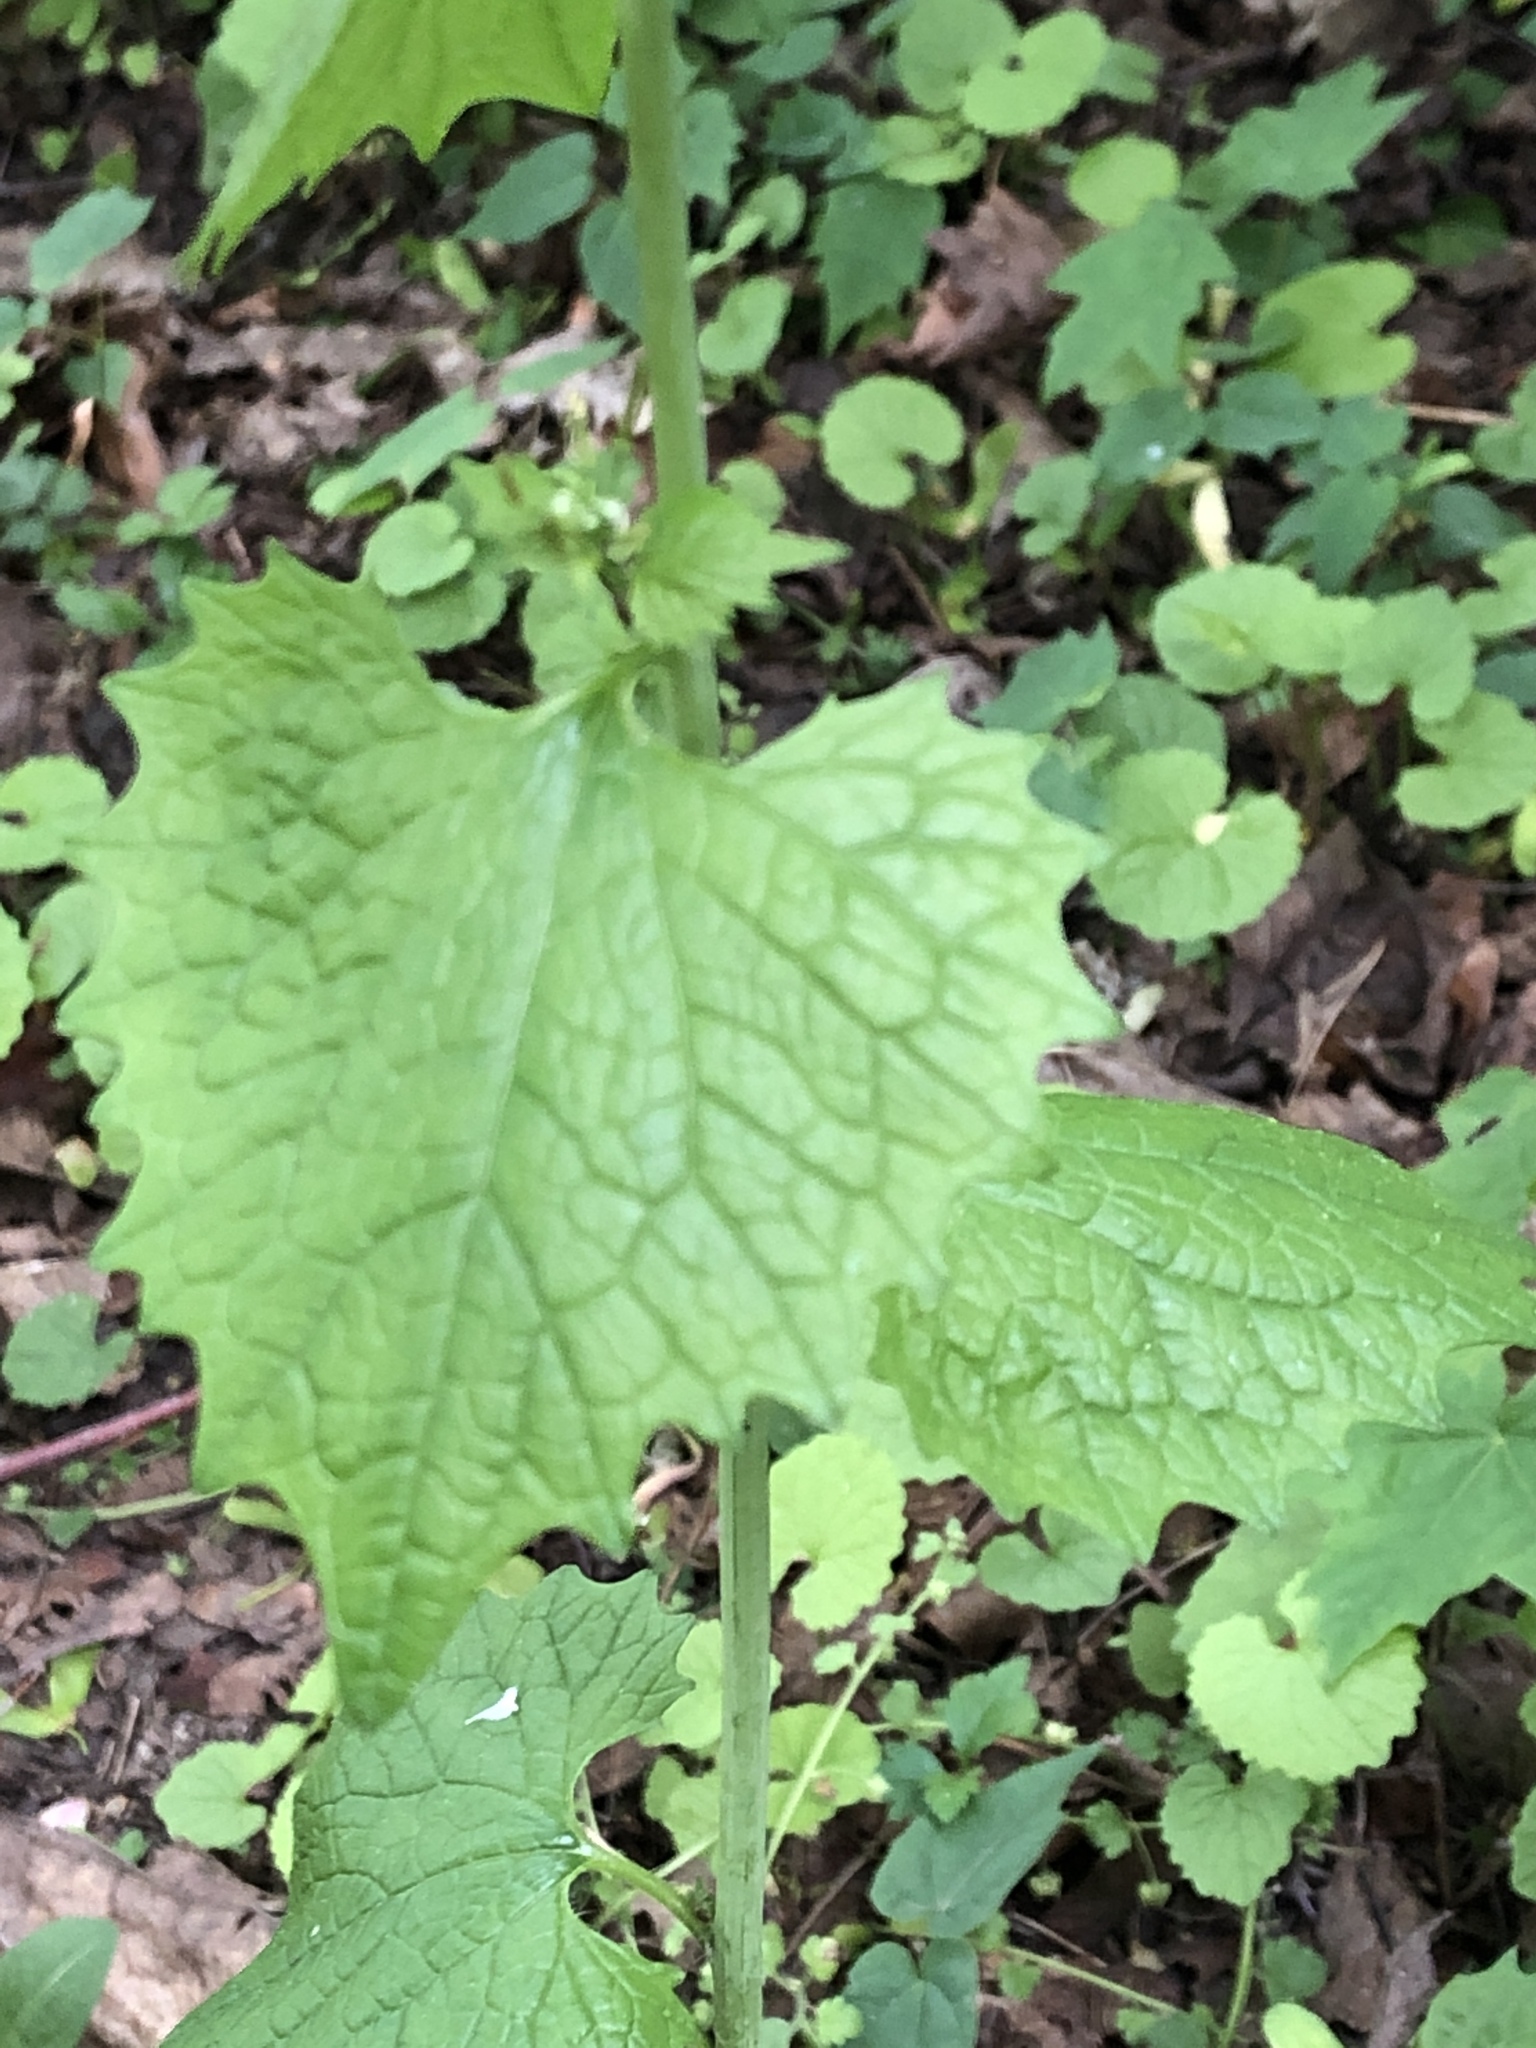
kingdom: Plantae
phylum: Tracheophyta
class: Magnoliopsida
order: Brassicales
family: Brassicaceae
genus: Alliaria
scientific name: Alliaria petiolata
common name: Garlic mustard
